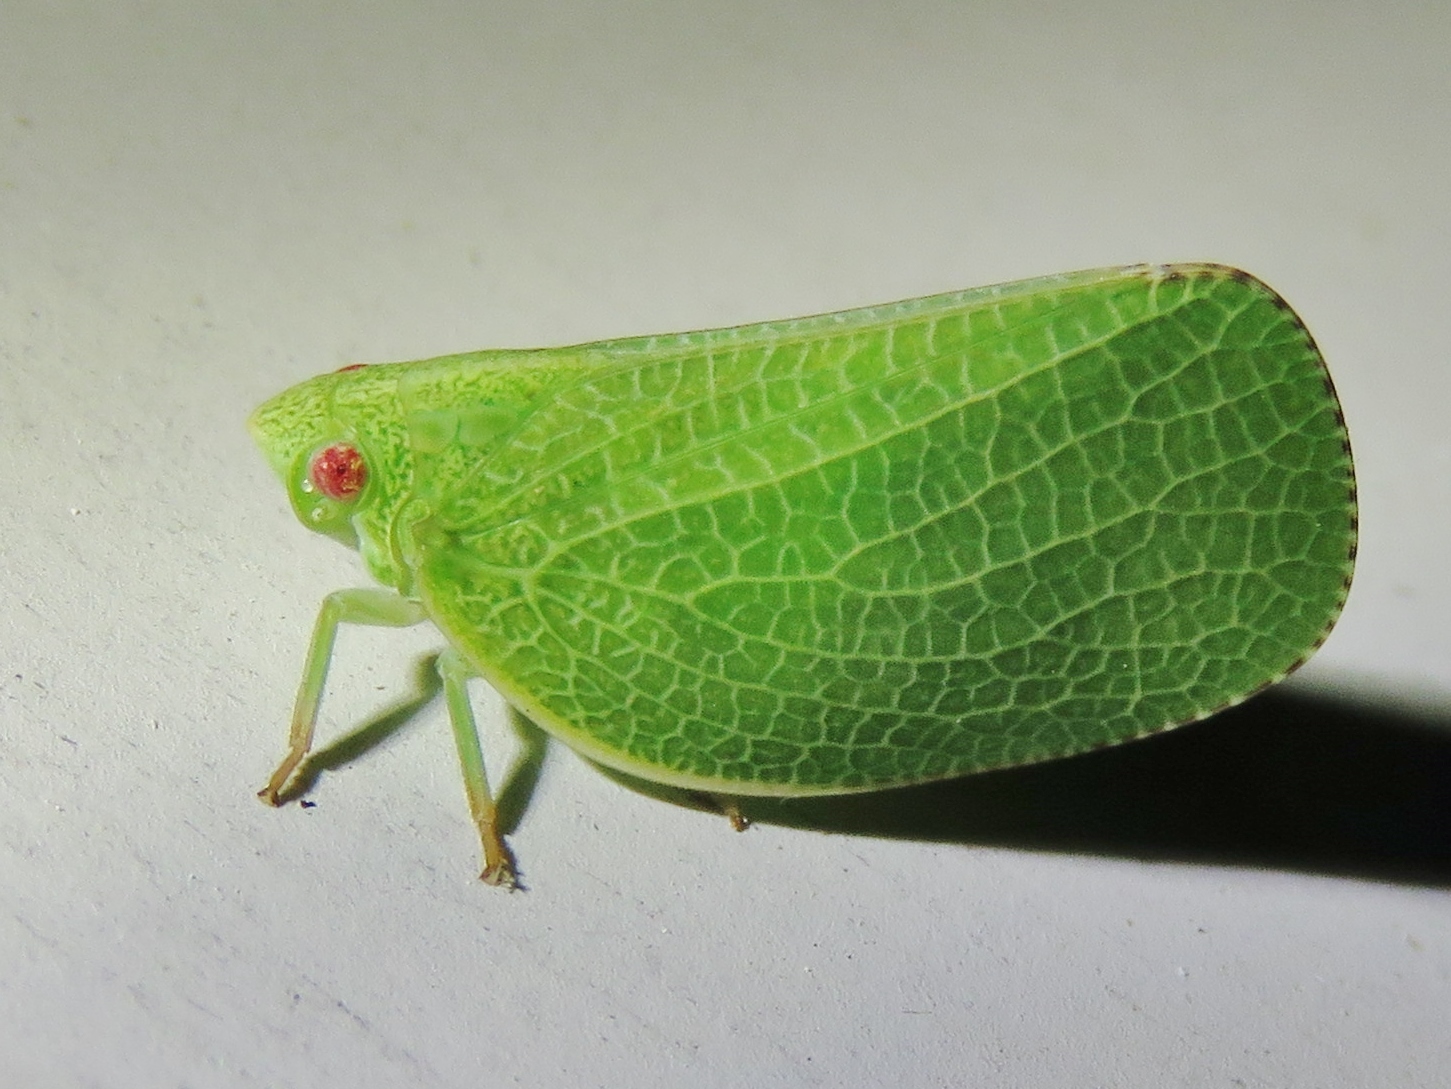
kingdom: Animalia
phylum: Arthropoda
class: Insecta
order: Hemiptera
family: Acanaloniidae
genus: Acanalonia
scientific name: Acanalonia conica
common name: Green cone-headed planthopper
